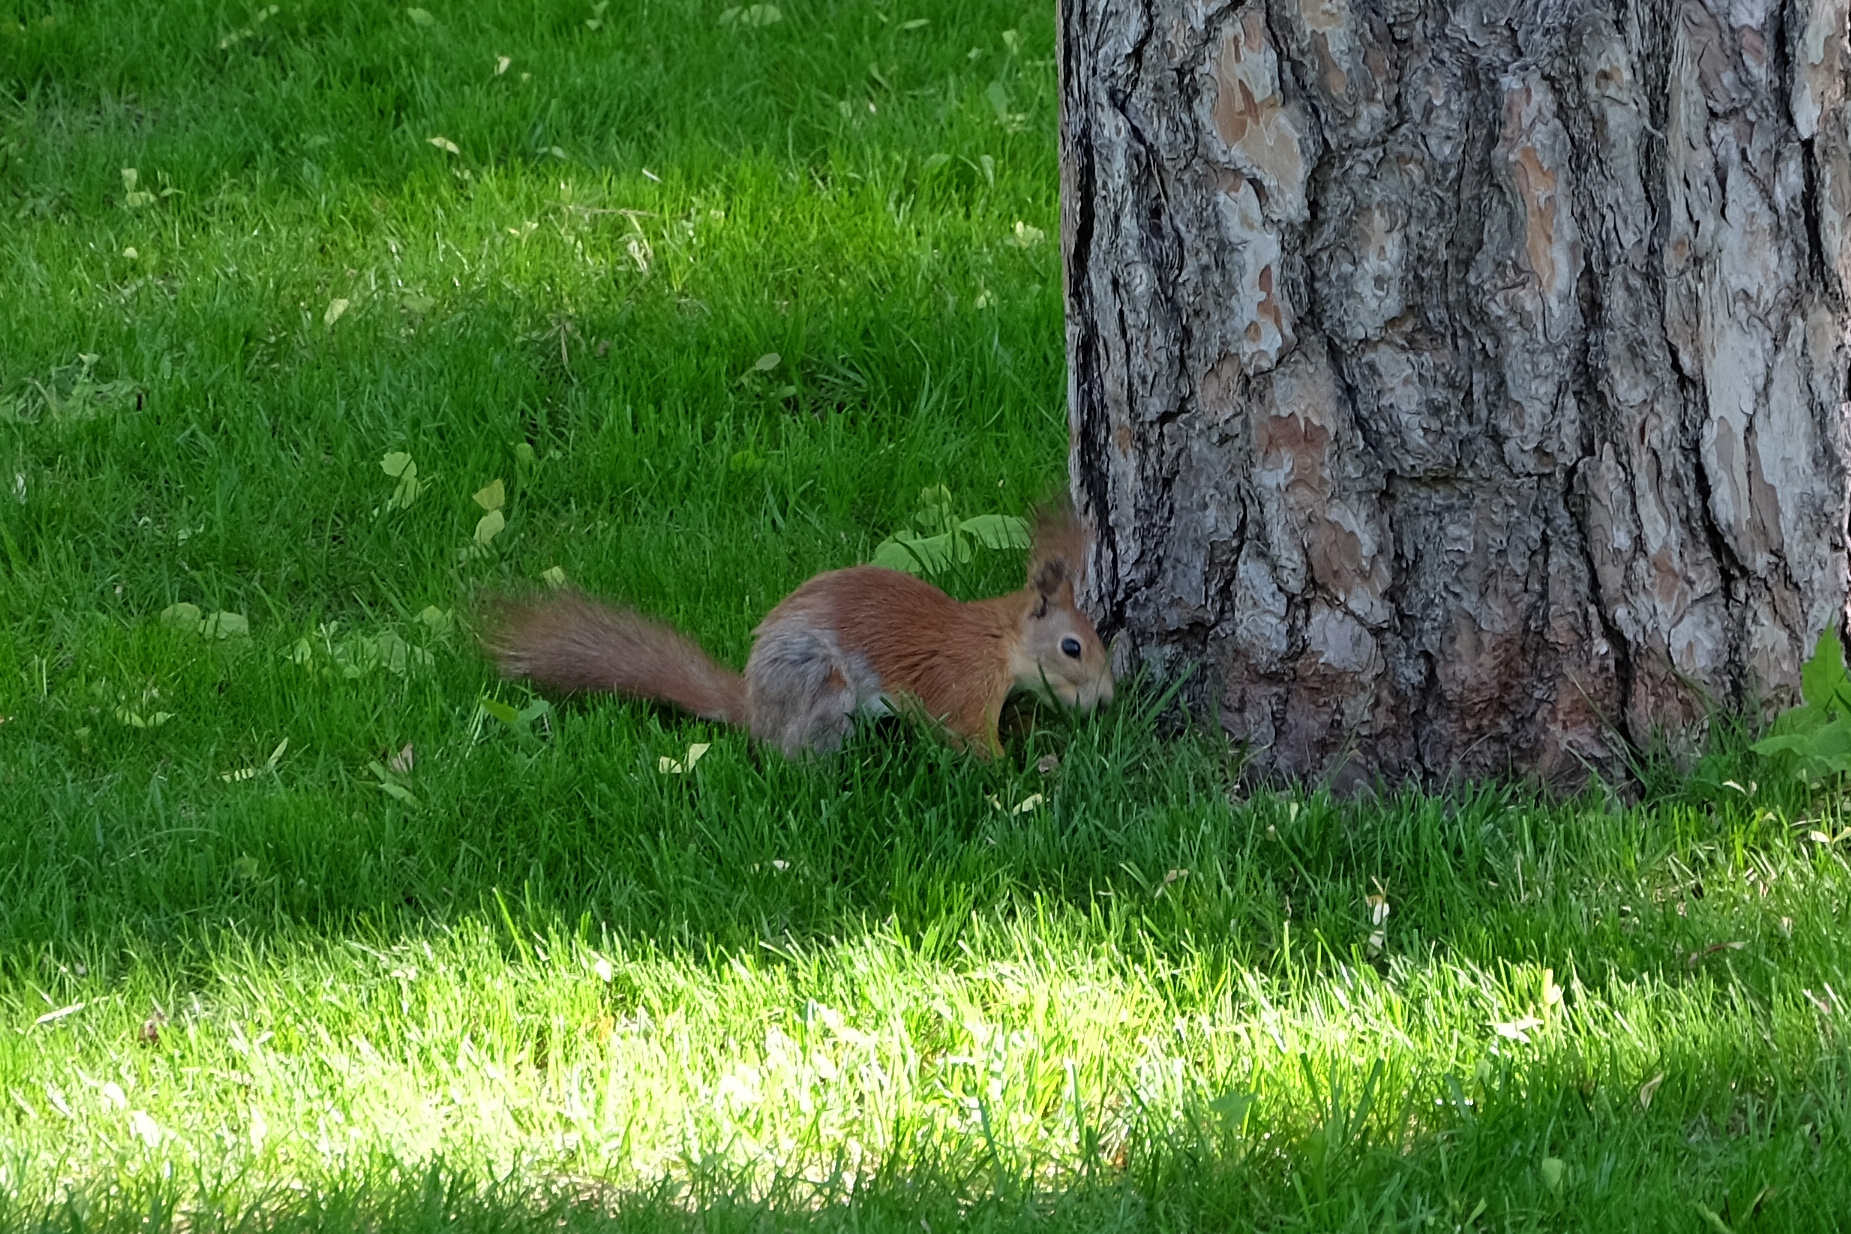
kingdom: Animalia
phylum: Chordata
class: Mammalia
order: Rodentia
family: Sciuridae
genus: Sciurus
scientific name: Sciurus vulgaris
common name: Eurasian red squirrel
